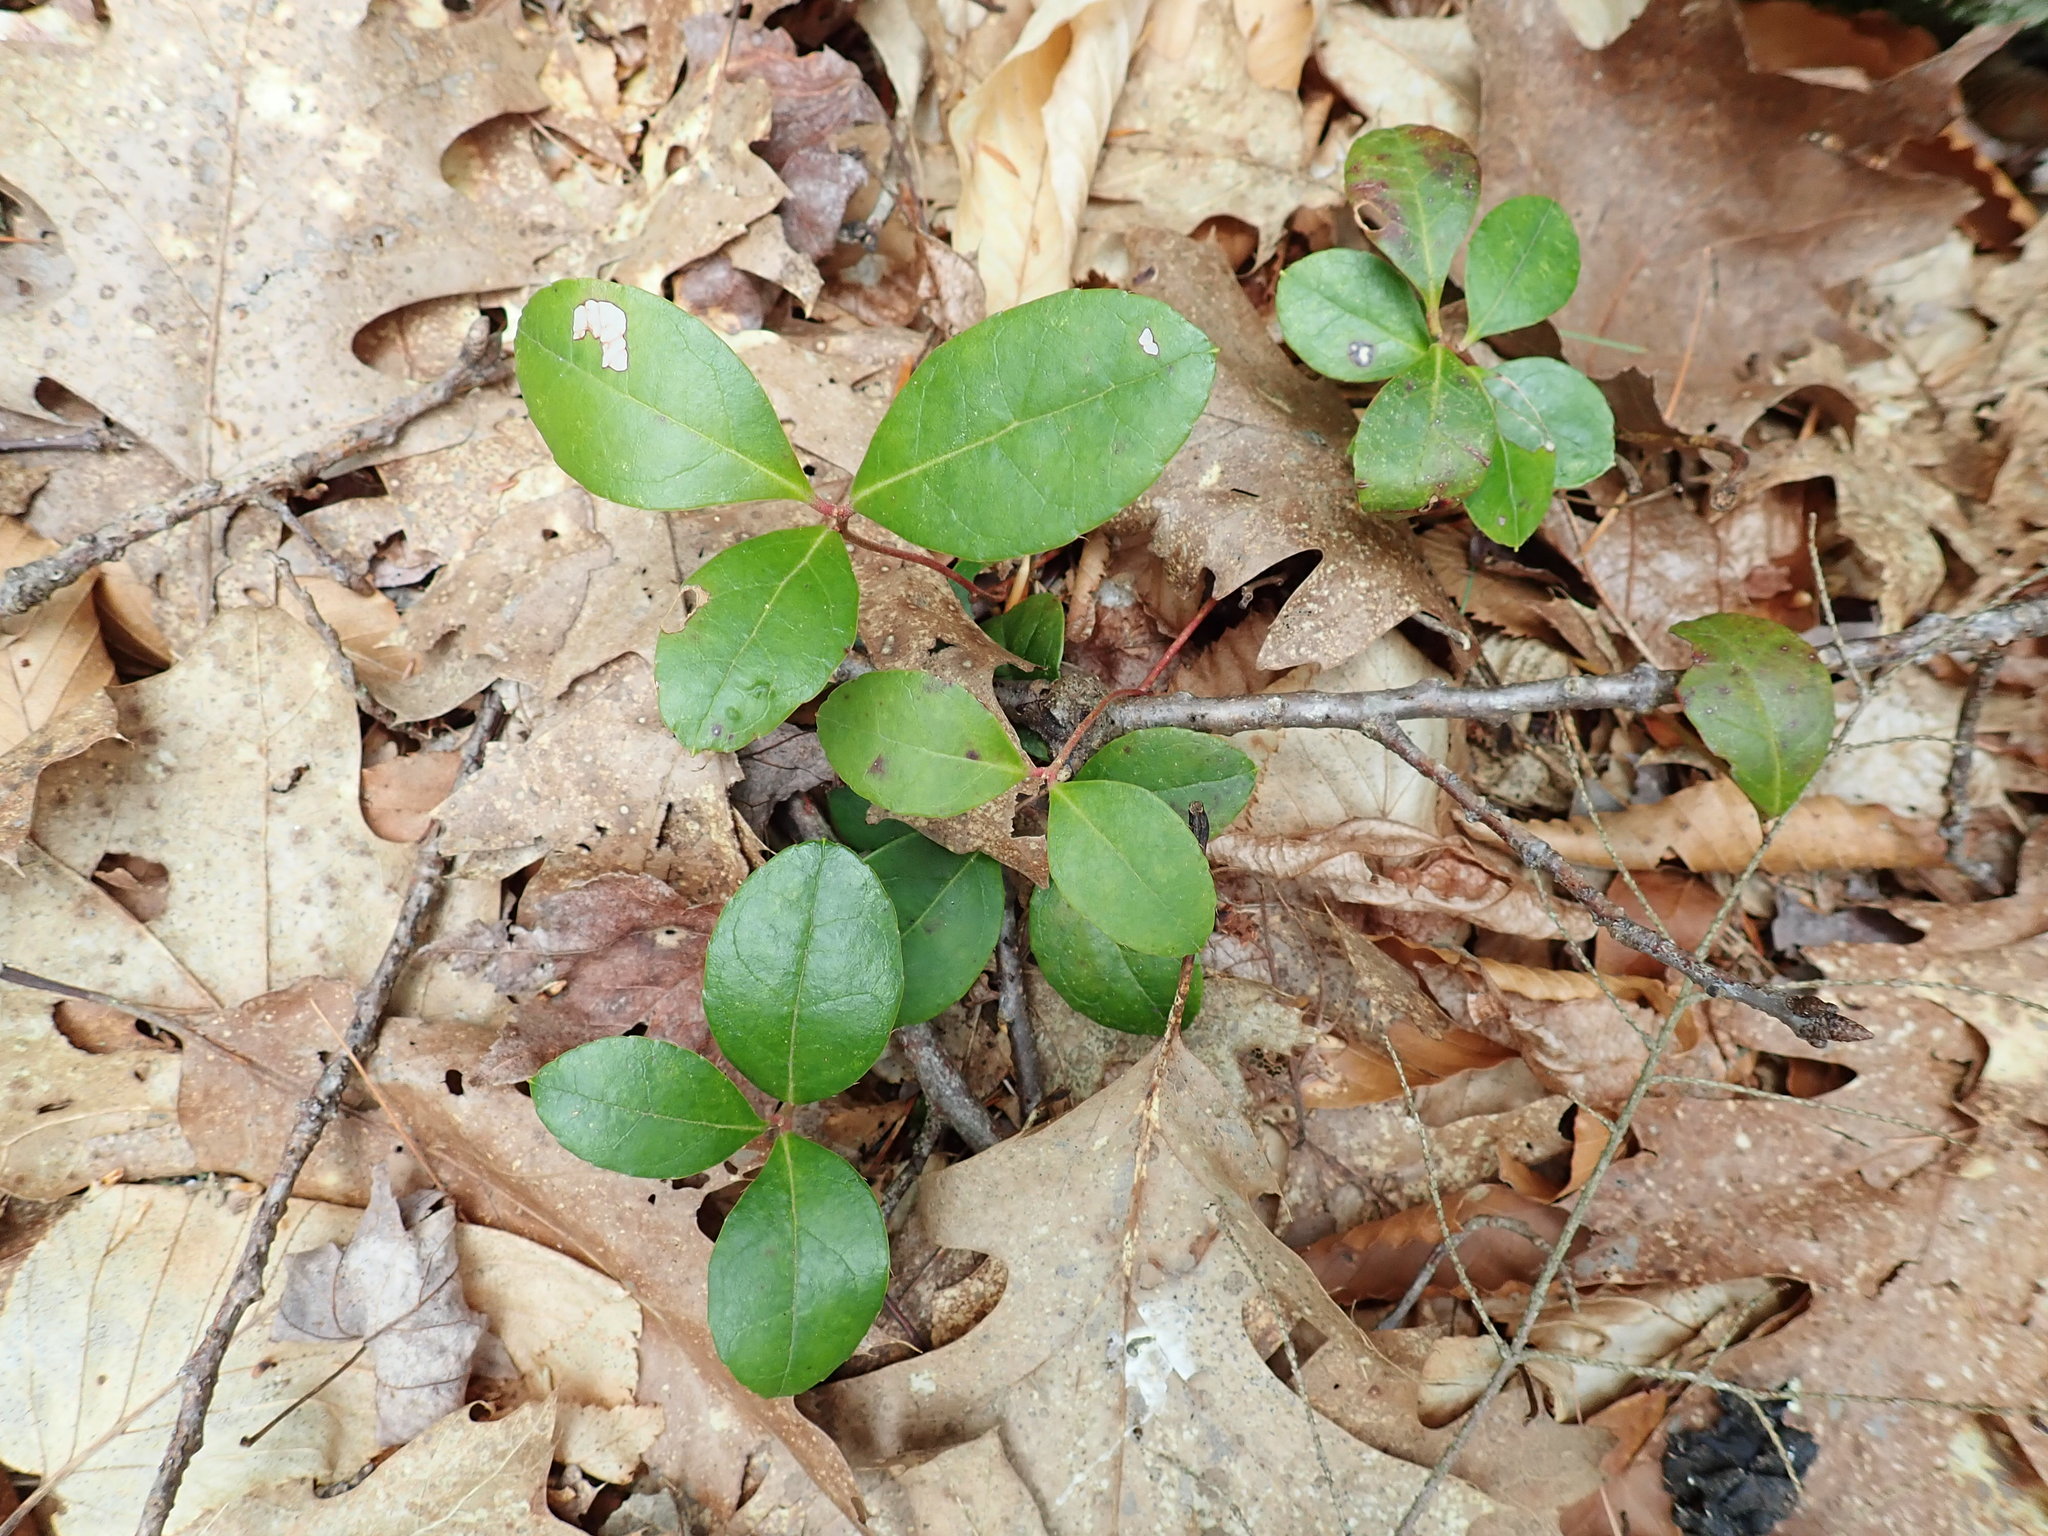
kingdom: Plantae
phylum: Tracheophyta
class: Magnoliopsida
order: Ericales
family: Ericaceae
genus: Gaultheria
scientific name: Gaultheria procumbens
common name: Checkerberry
